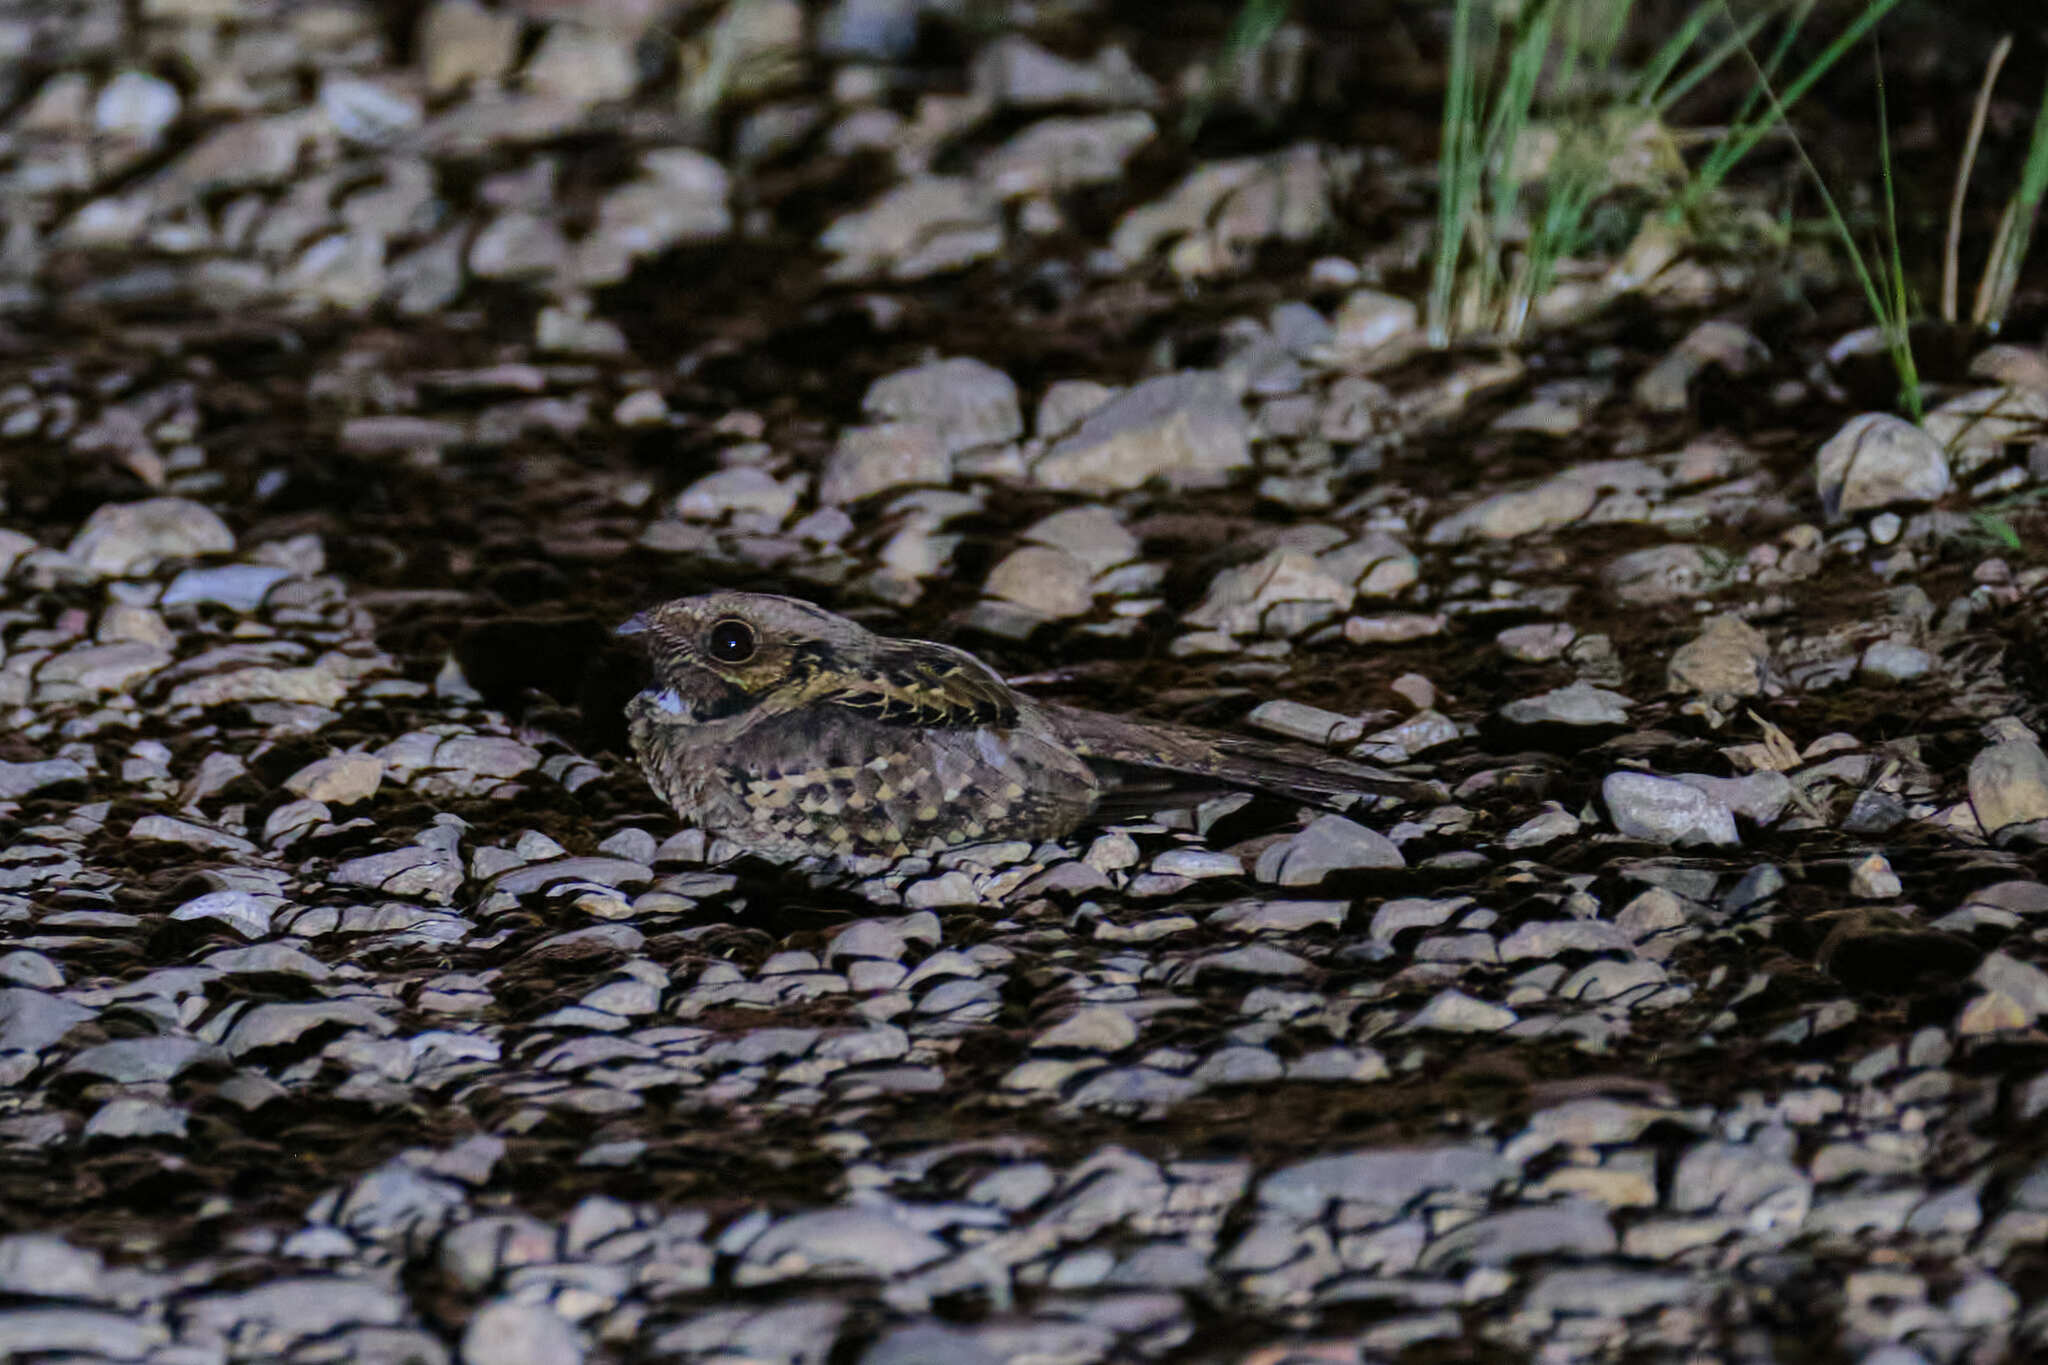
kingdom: Animalia
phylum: Chordata
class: Aves
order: Caprimulgiformes
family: Caprimulgidae
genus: Nyctidromus
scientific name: Nyctidromus albicollis
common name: Pauraque
